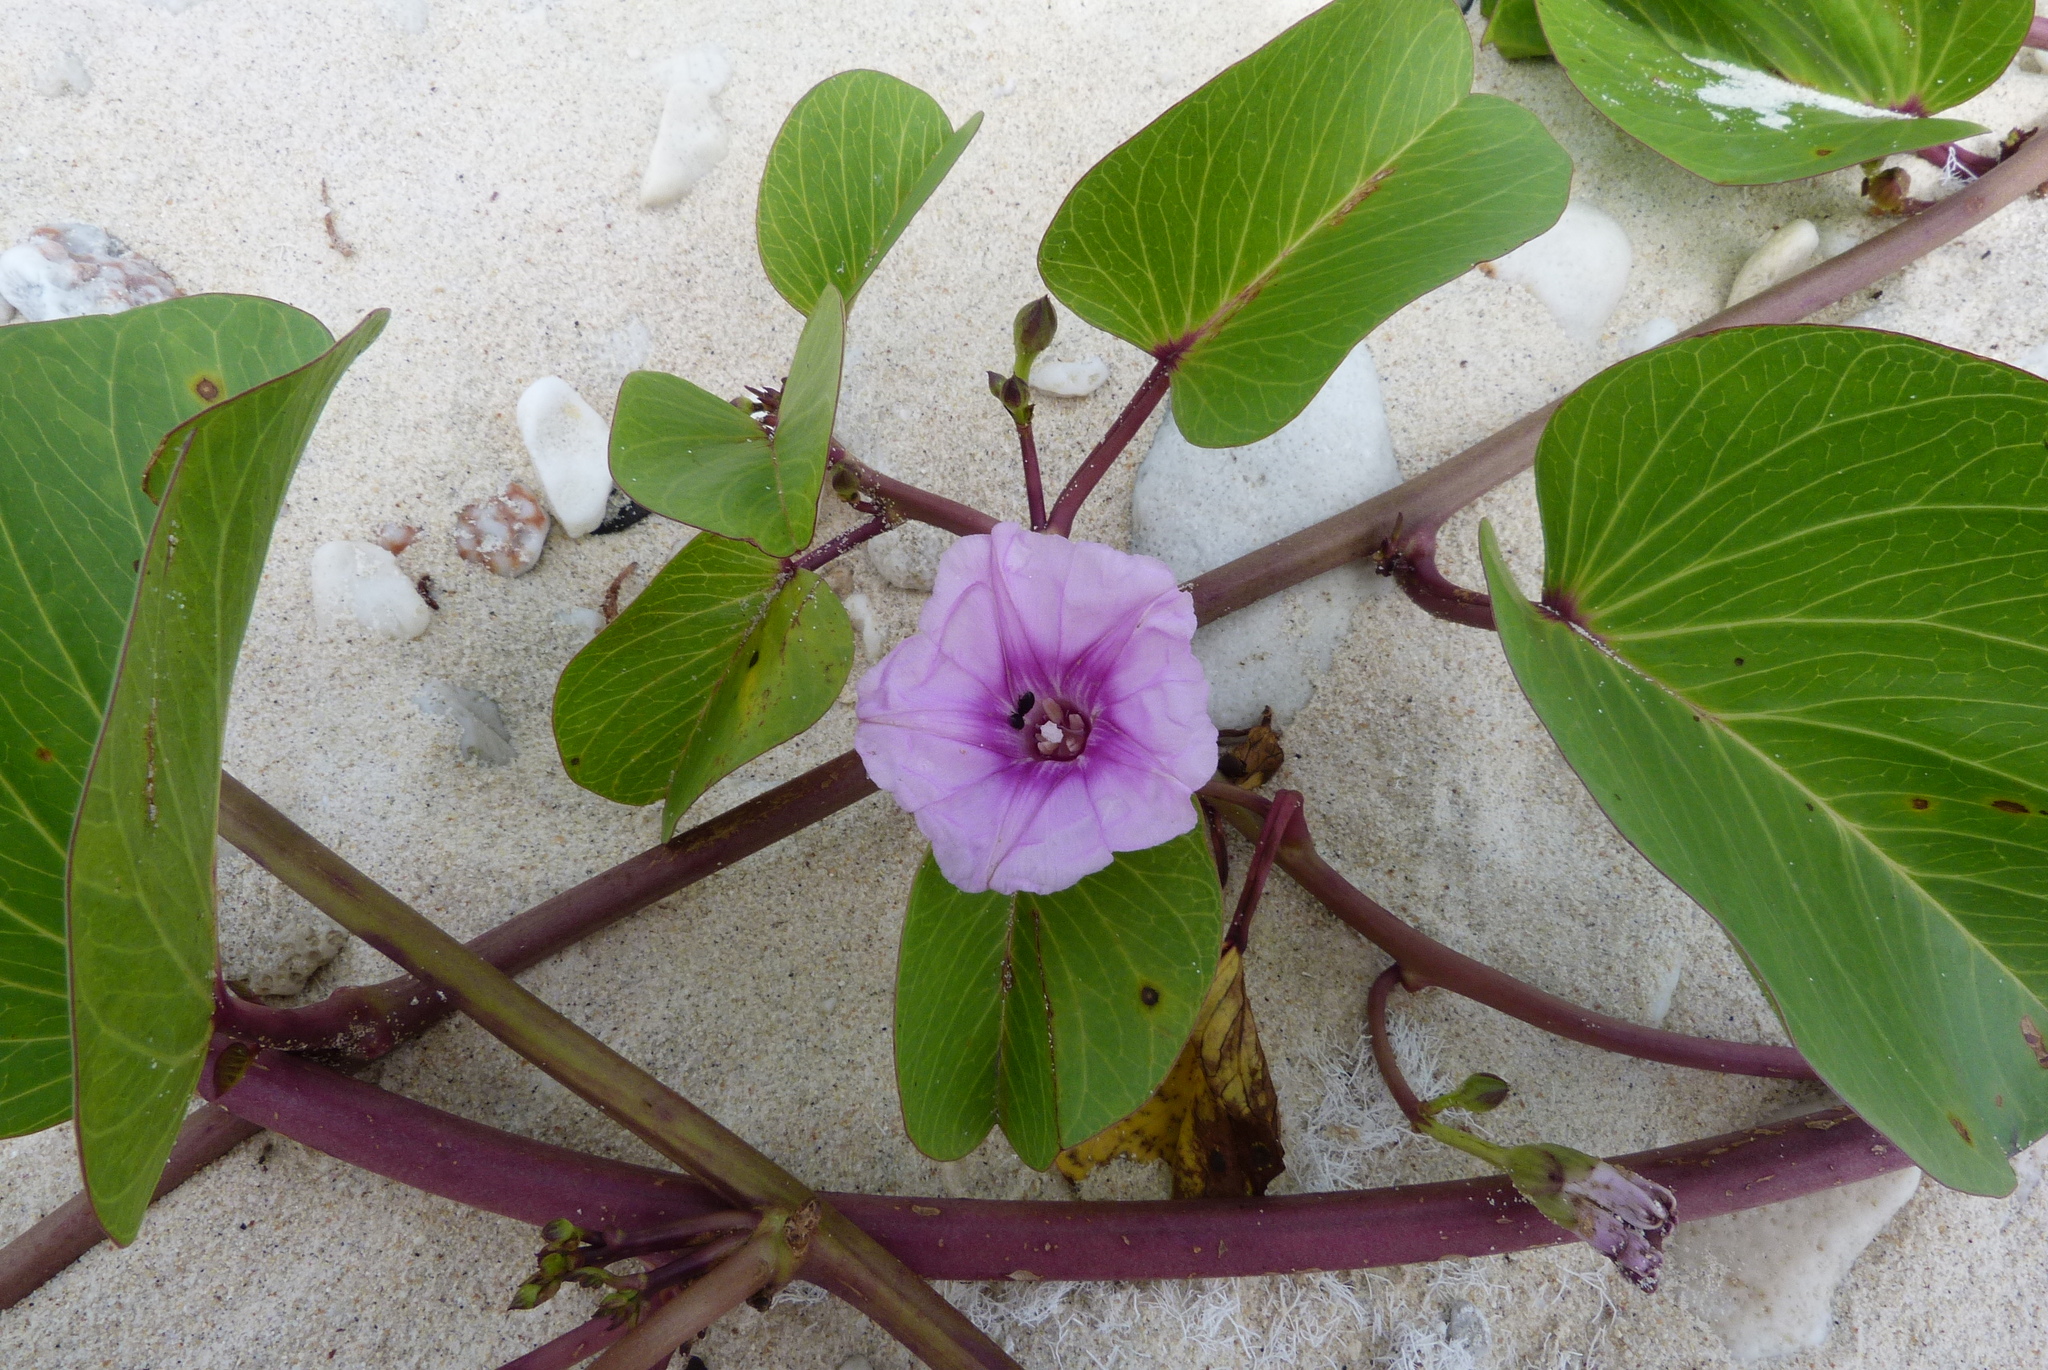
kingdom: Plantae
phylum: Tracheophyta
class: Magnoliopsida
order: Solanales
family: Convolvulaceae
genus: Ipomoea
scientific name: Ipomoea pes-caprae
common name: Beach morning glory
